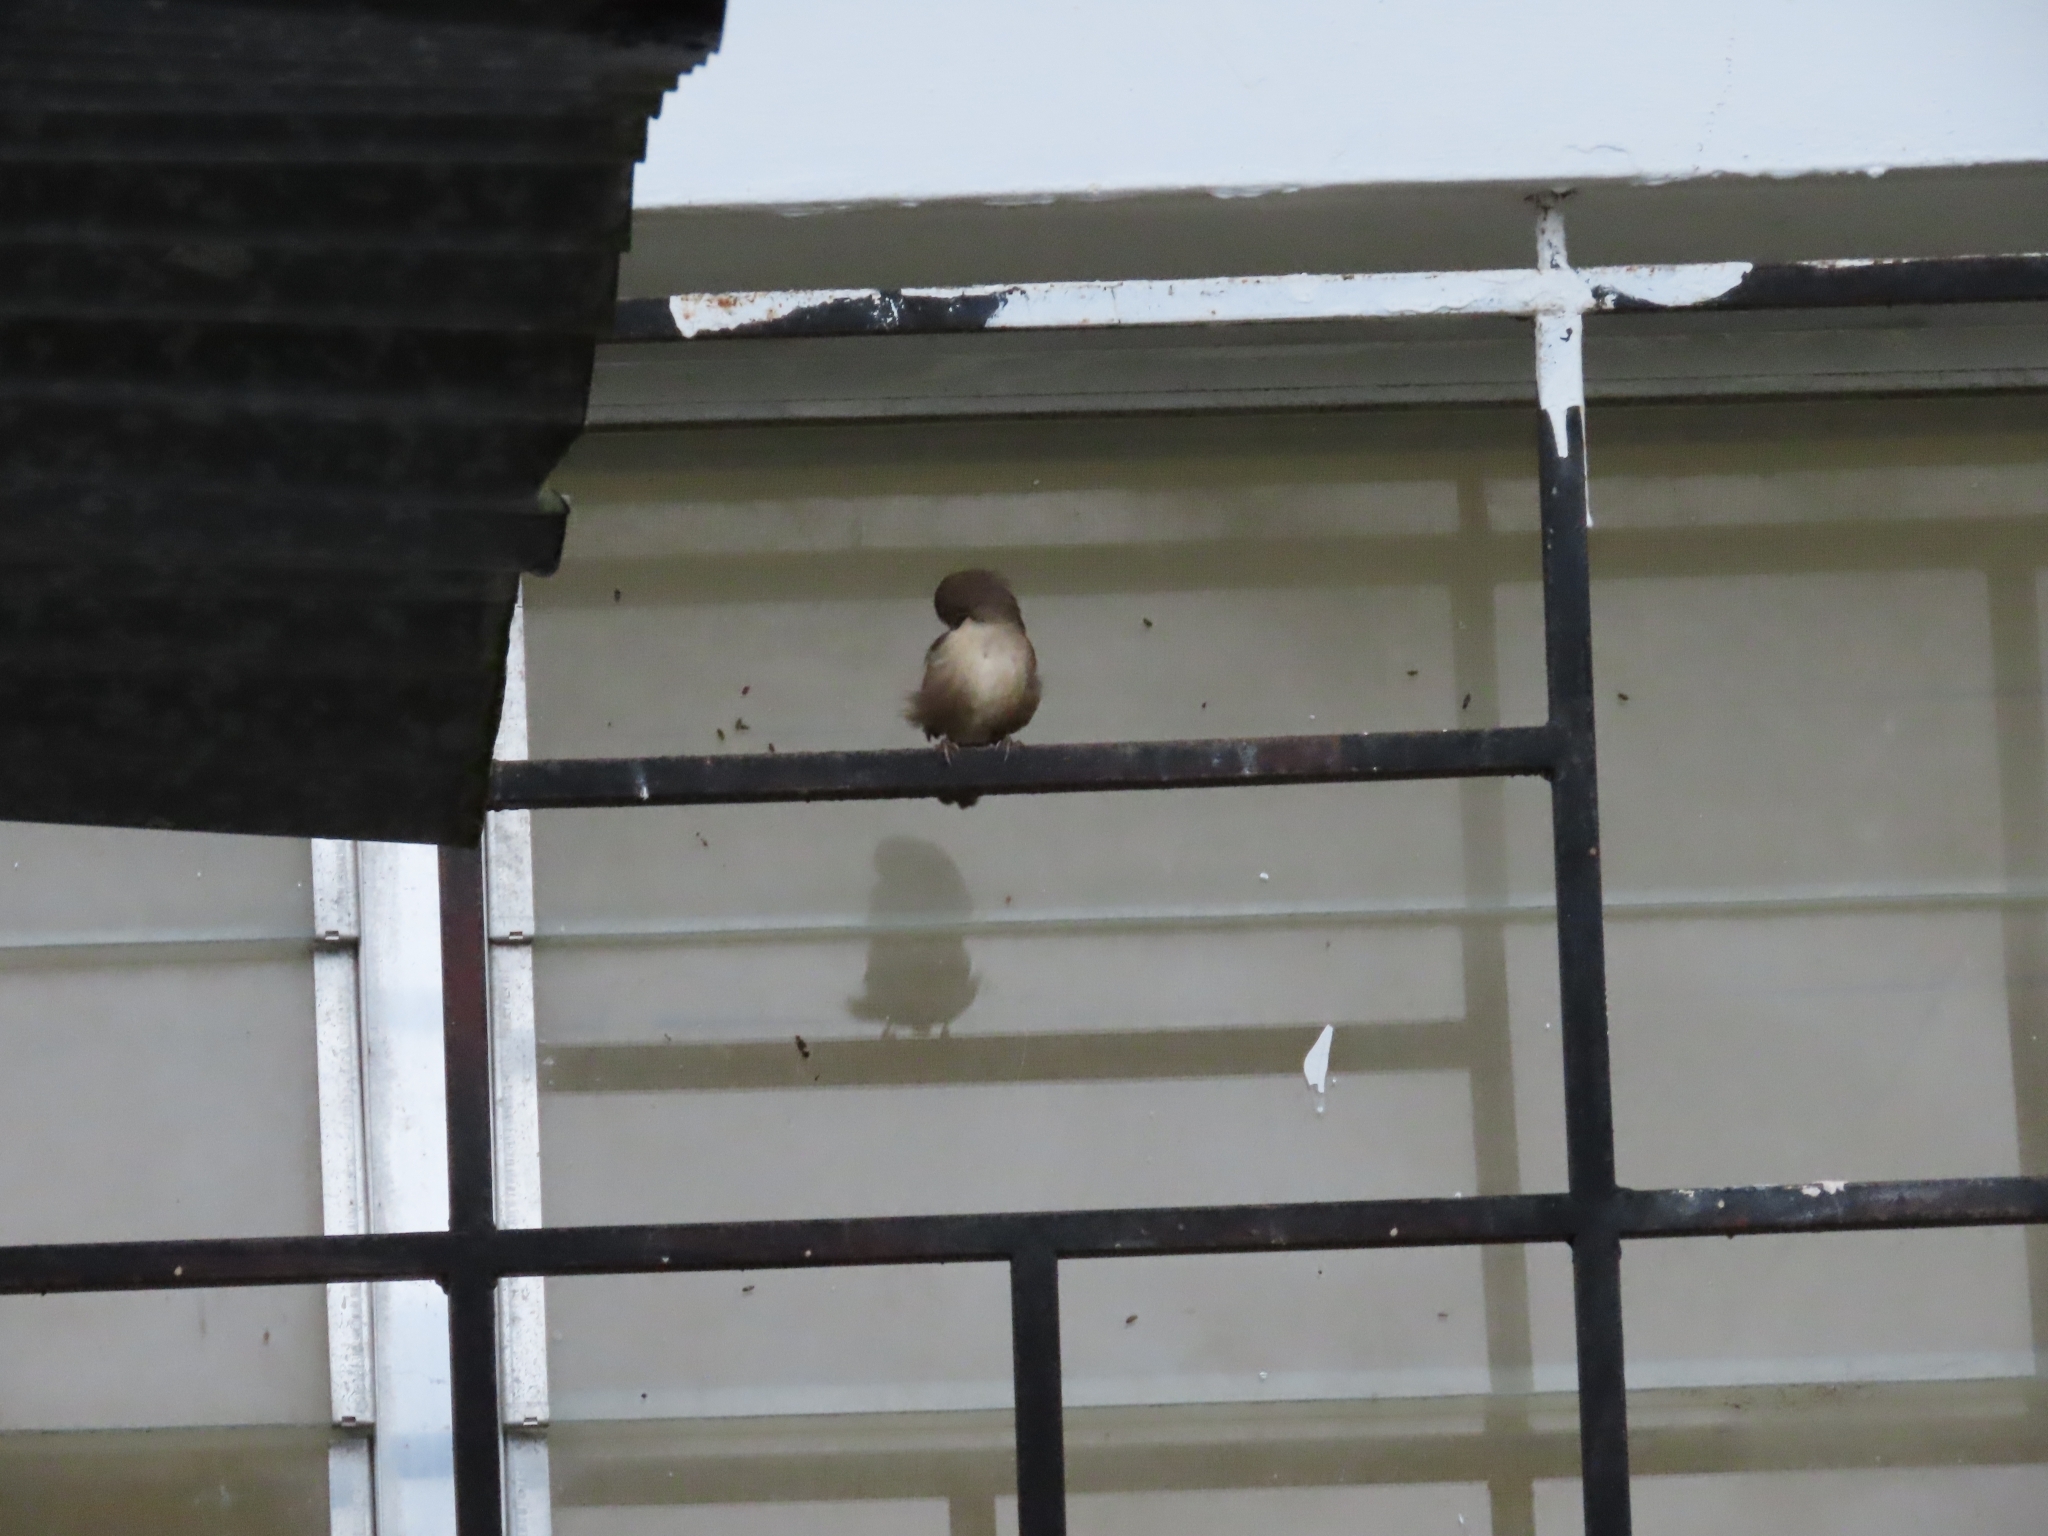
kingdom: Animalia
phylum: Chordata
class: Aves
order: Passeriformes
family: Troglodytidae
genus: Troglodytes
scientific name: Troglodytes aedon
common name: House wren
